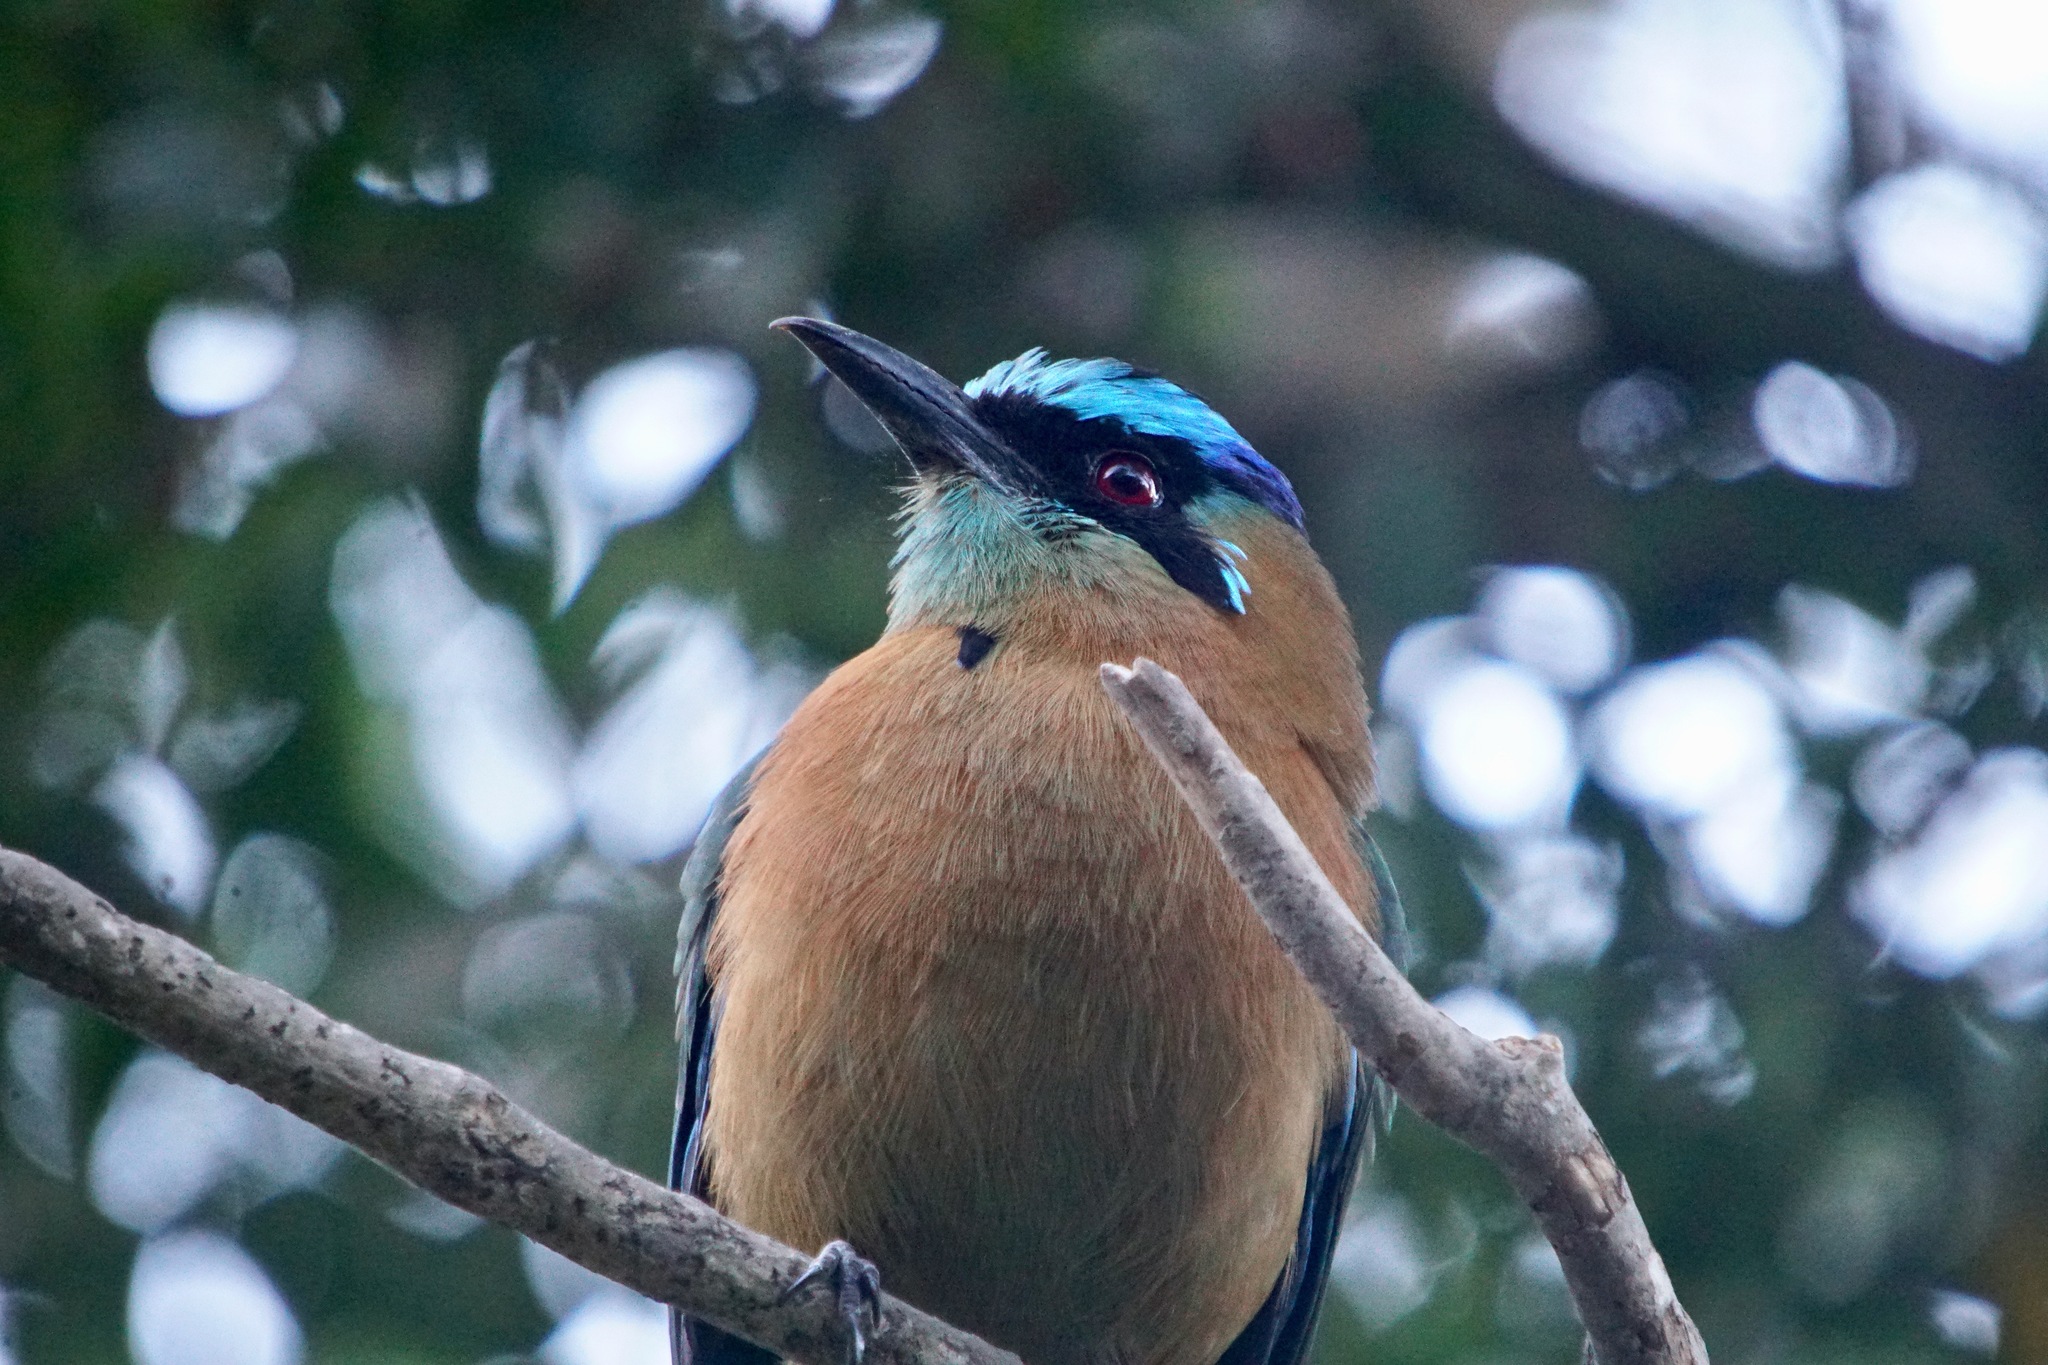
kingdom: Animalia
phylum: Chordata
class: Aves
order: Coraciiformes
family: Momotidae
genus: Momotus
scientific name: Momotus lessonii
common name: Lesson's motmot
